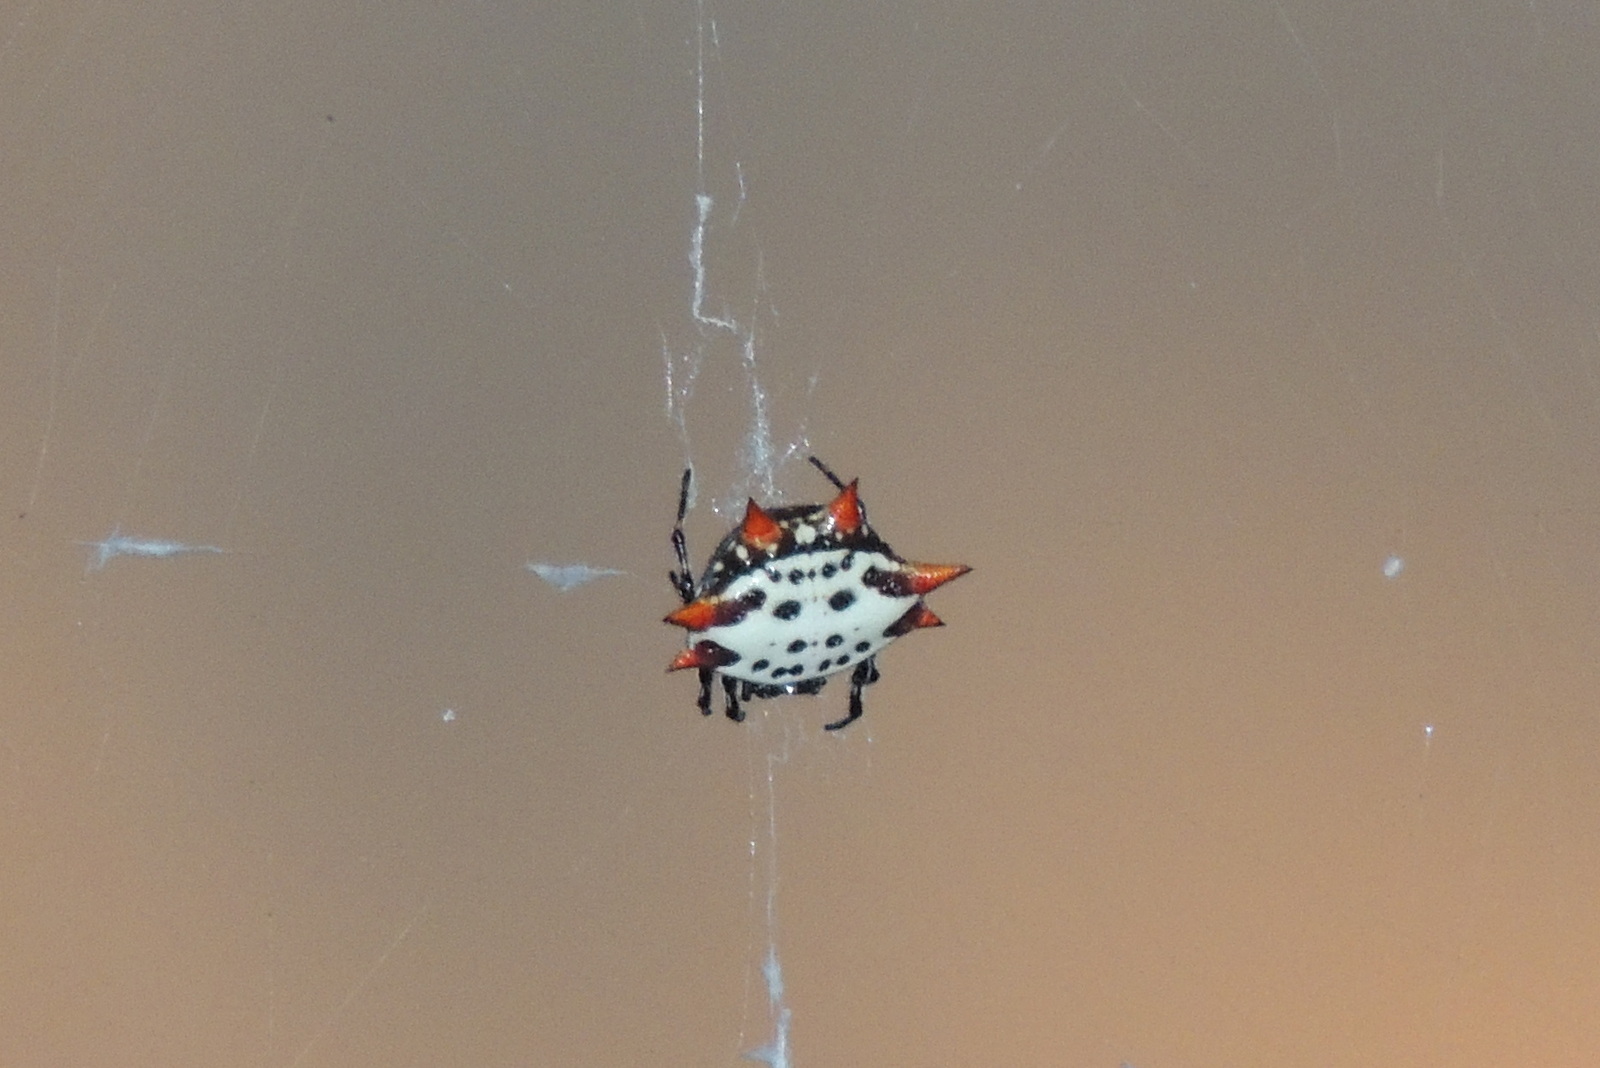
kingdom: Animalia
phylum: Arthropoda
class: Arachnida
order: Araneae
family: Araneidae
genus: Gasteracantha
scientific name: Gasteracantha cancriformis
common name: Orb weavers
